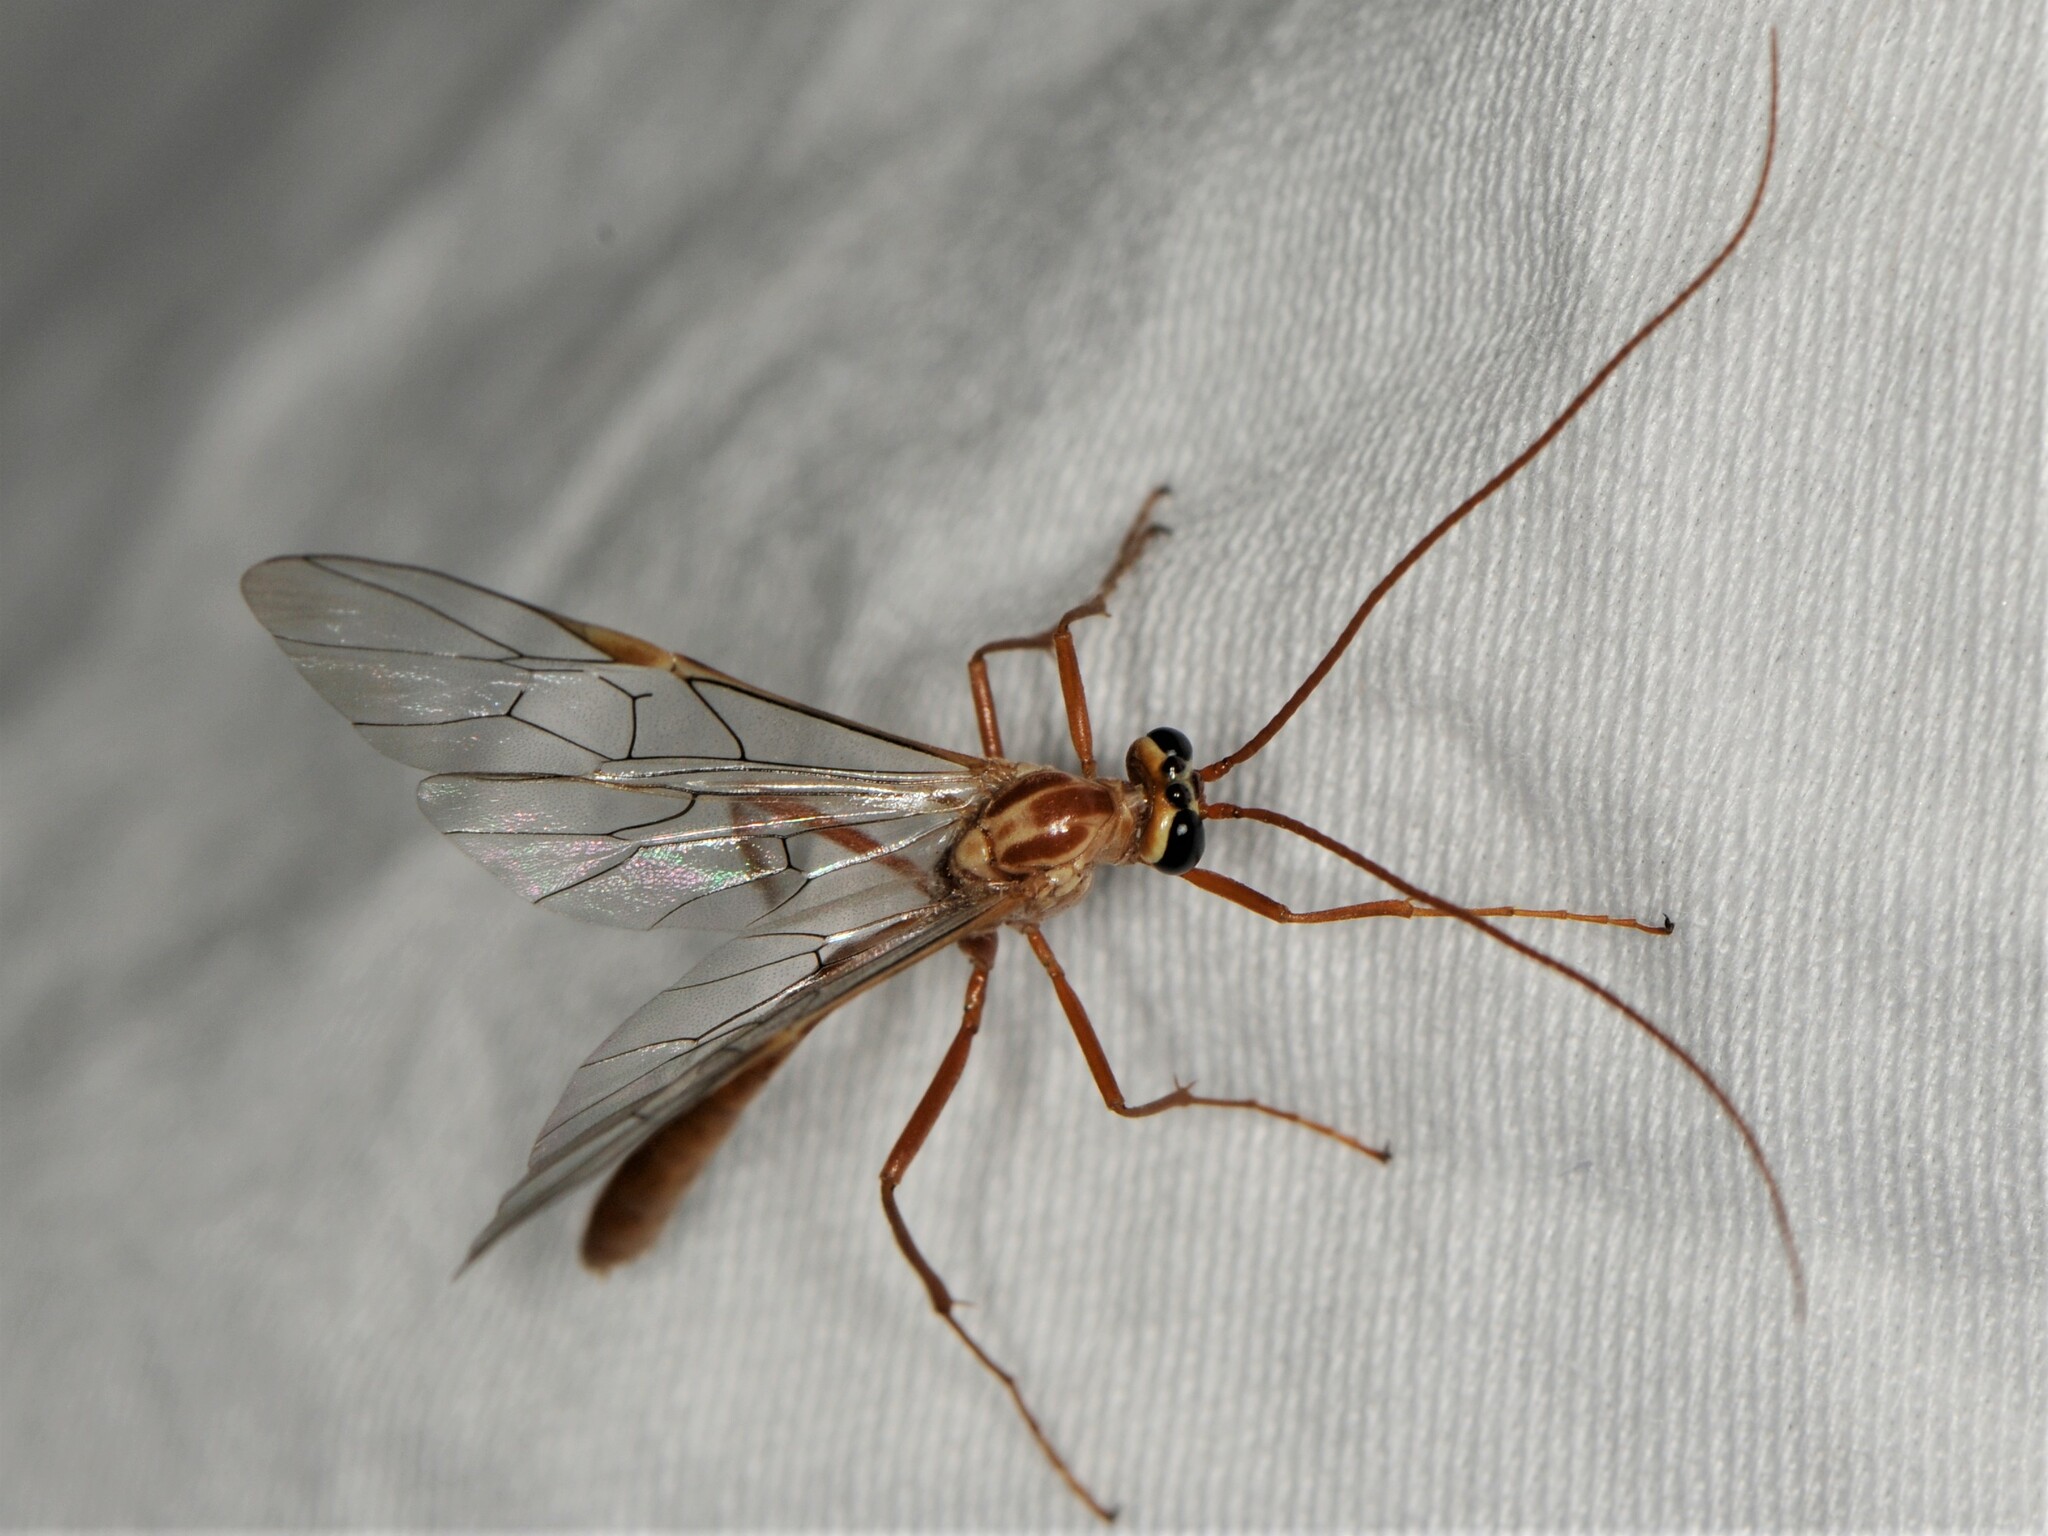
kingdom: Animalia
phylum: Arthropoda
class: Insecta
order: Hymenoptera
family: Ichneumonidae
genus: Ophion
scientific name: Ophion
